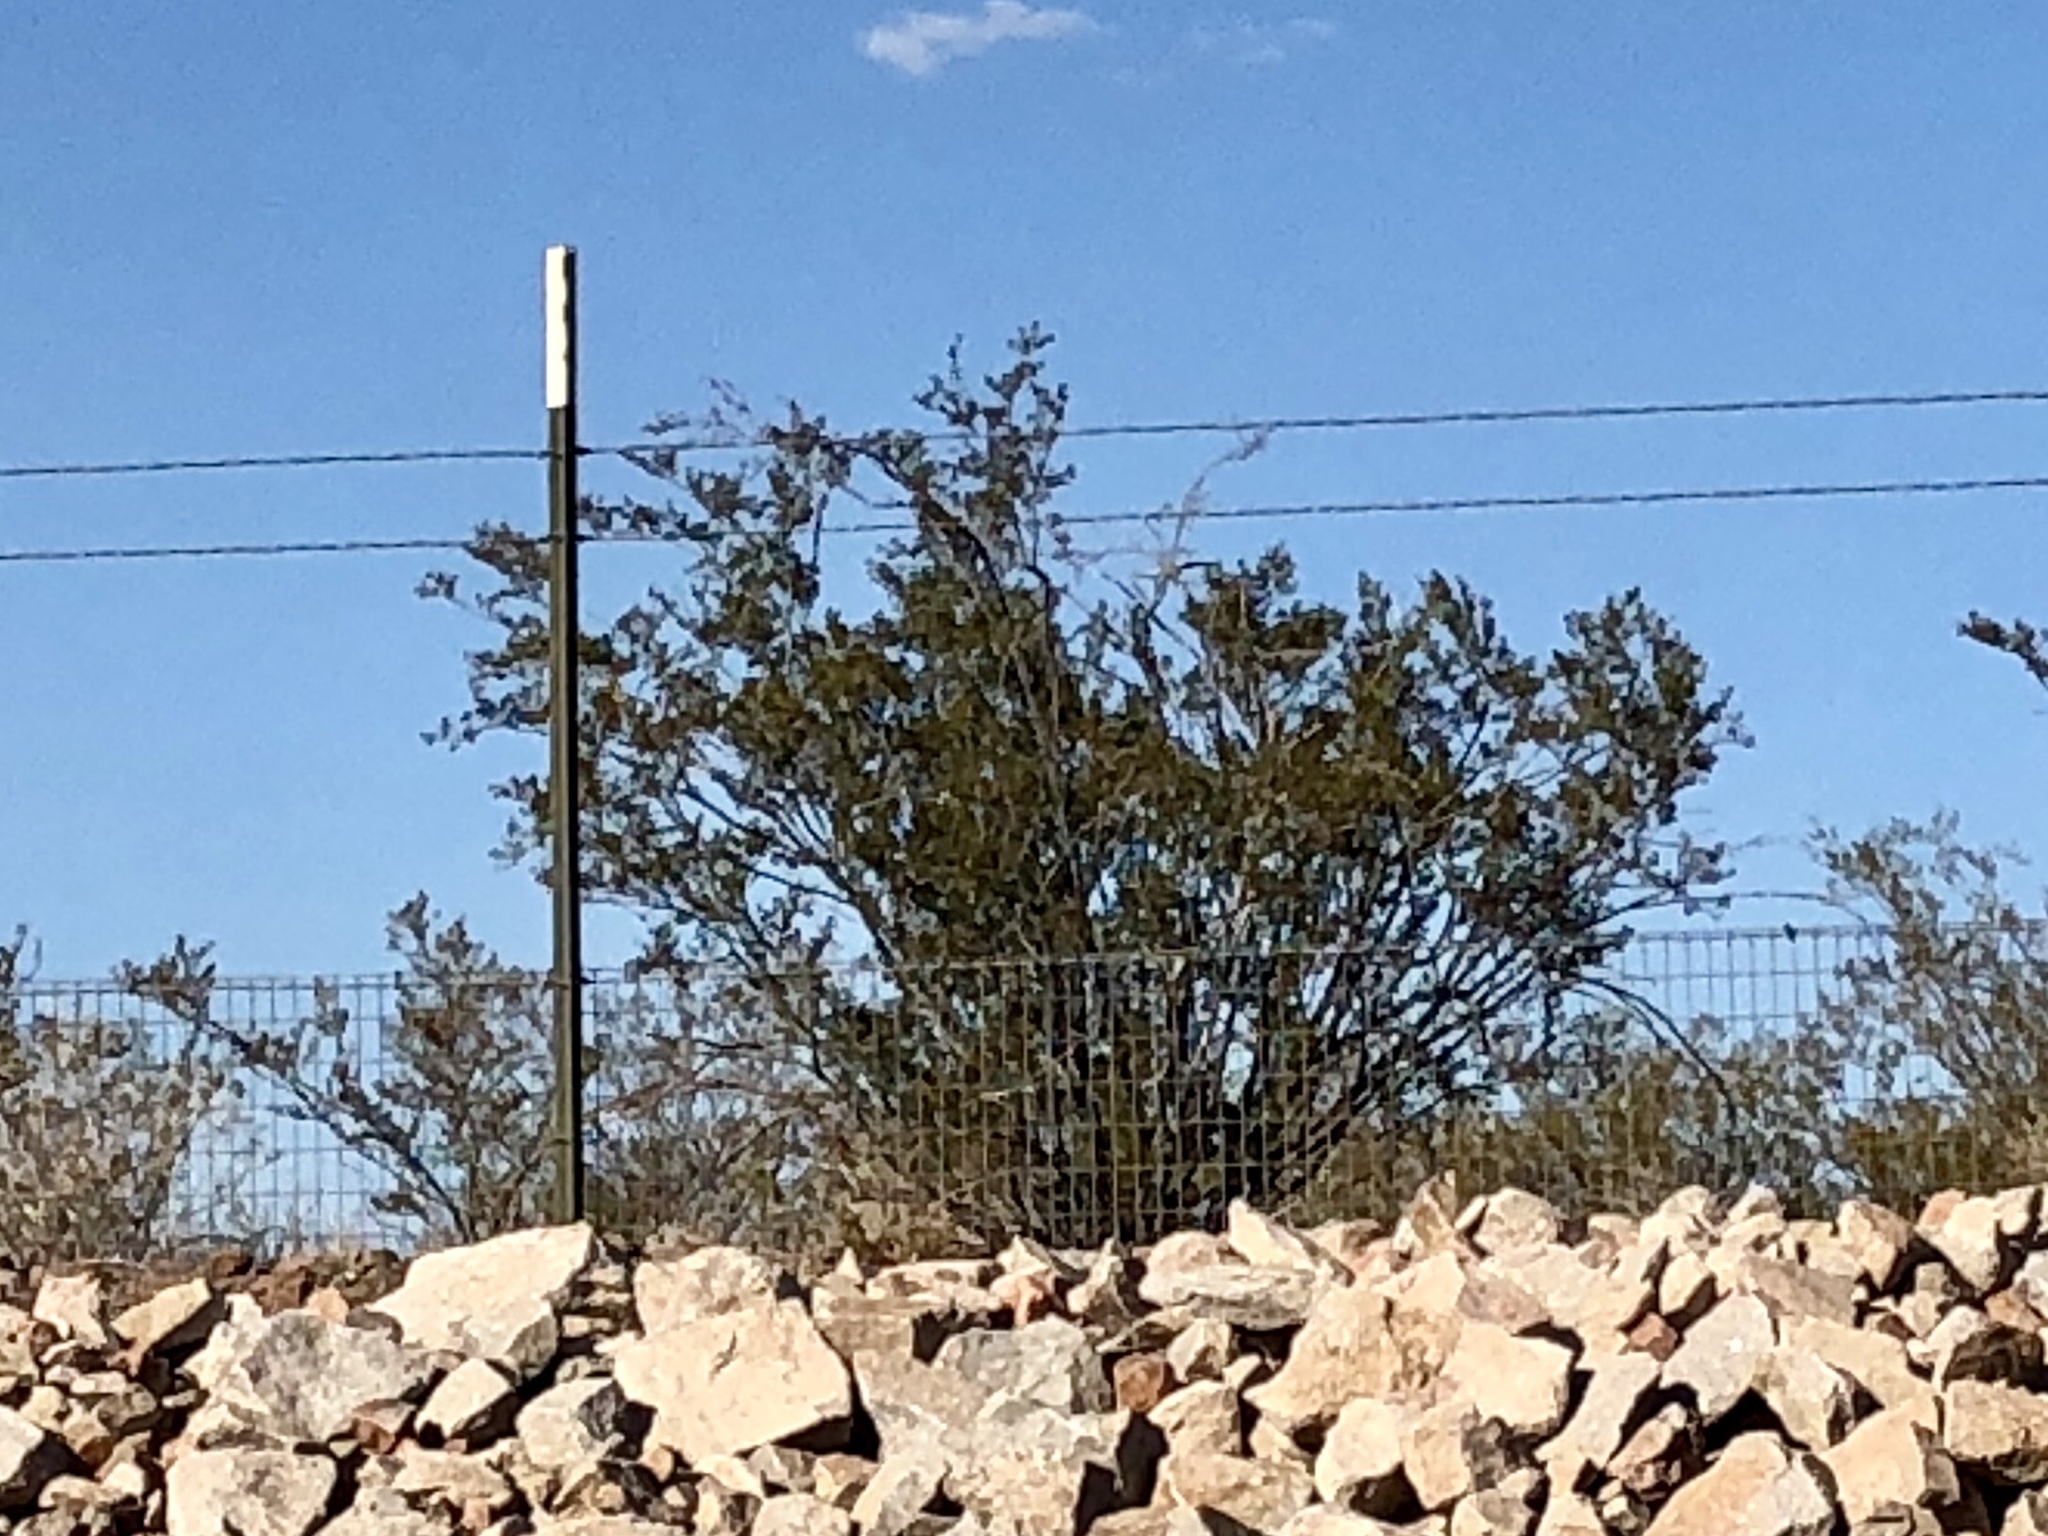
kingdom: Plantae
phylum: Tracheophyta
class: Magnoliopsida
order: Zygophyllales
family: Zygophyllaceae
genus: Larrea
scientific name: Larrea tridentata
